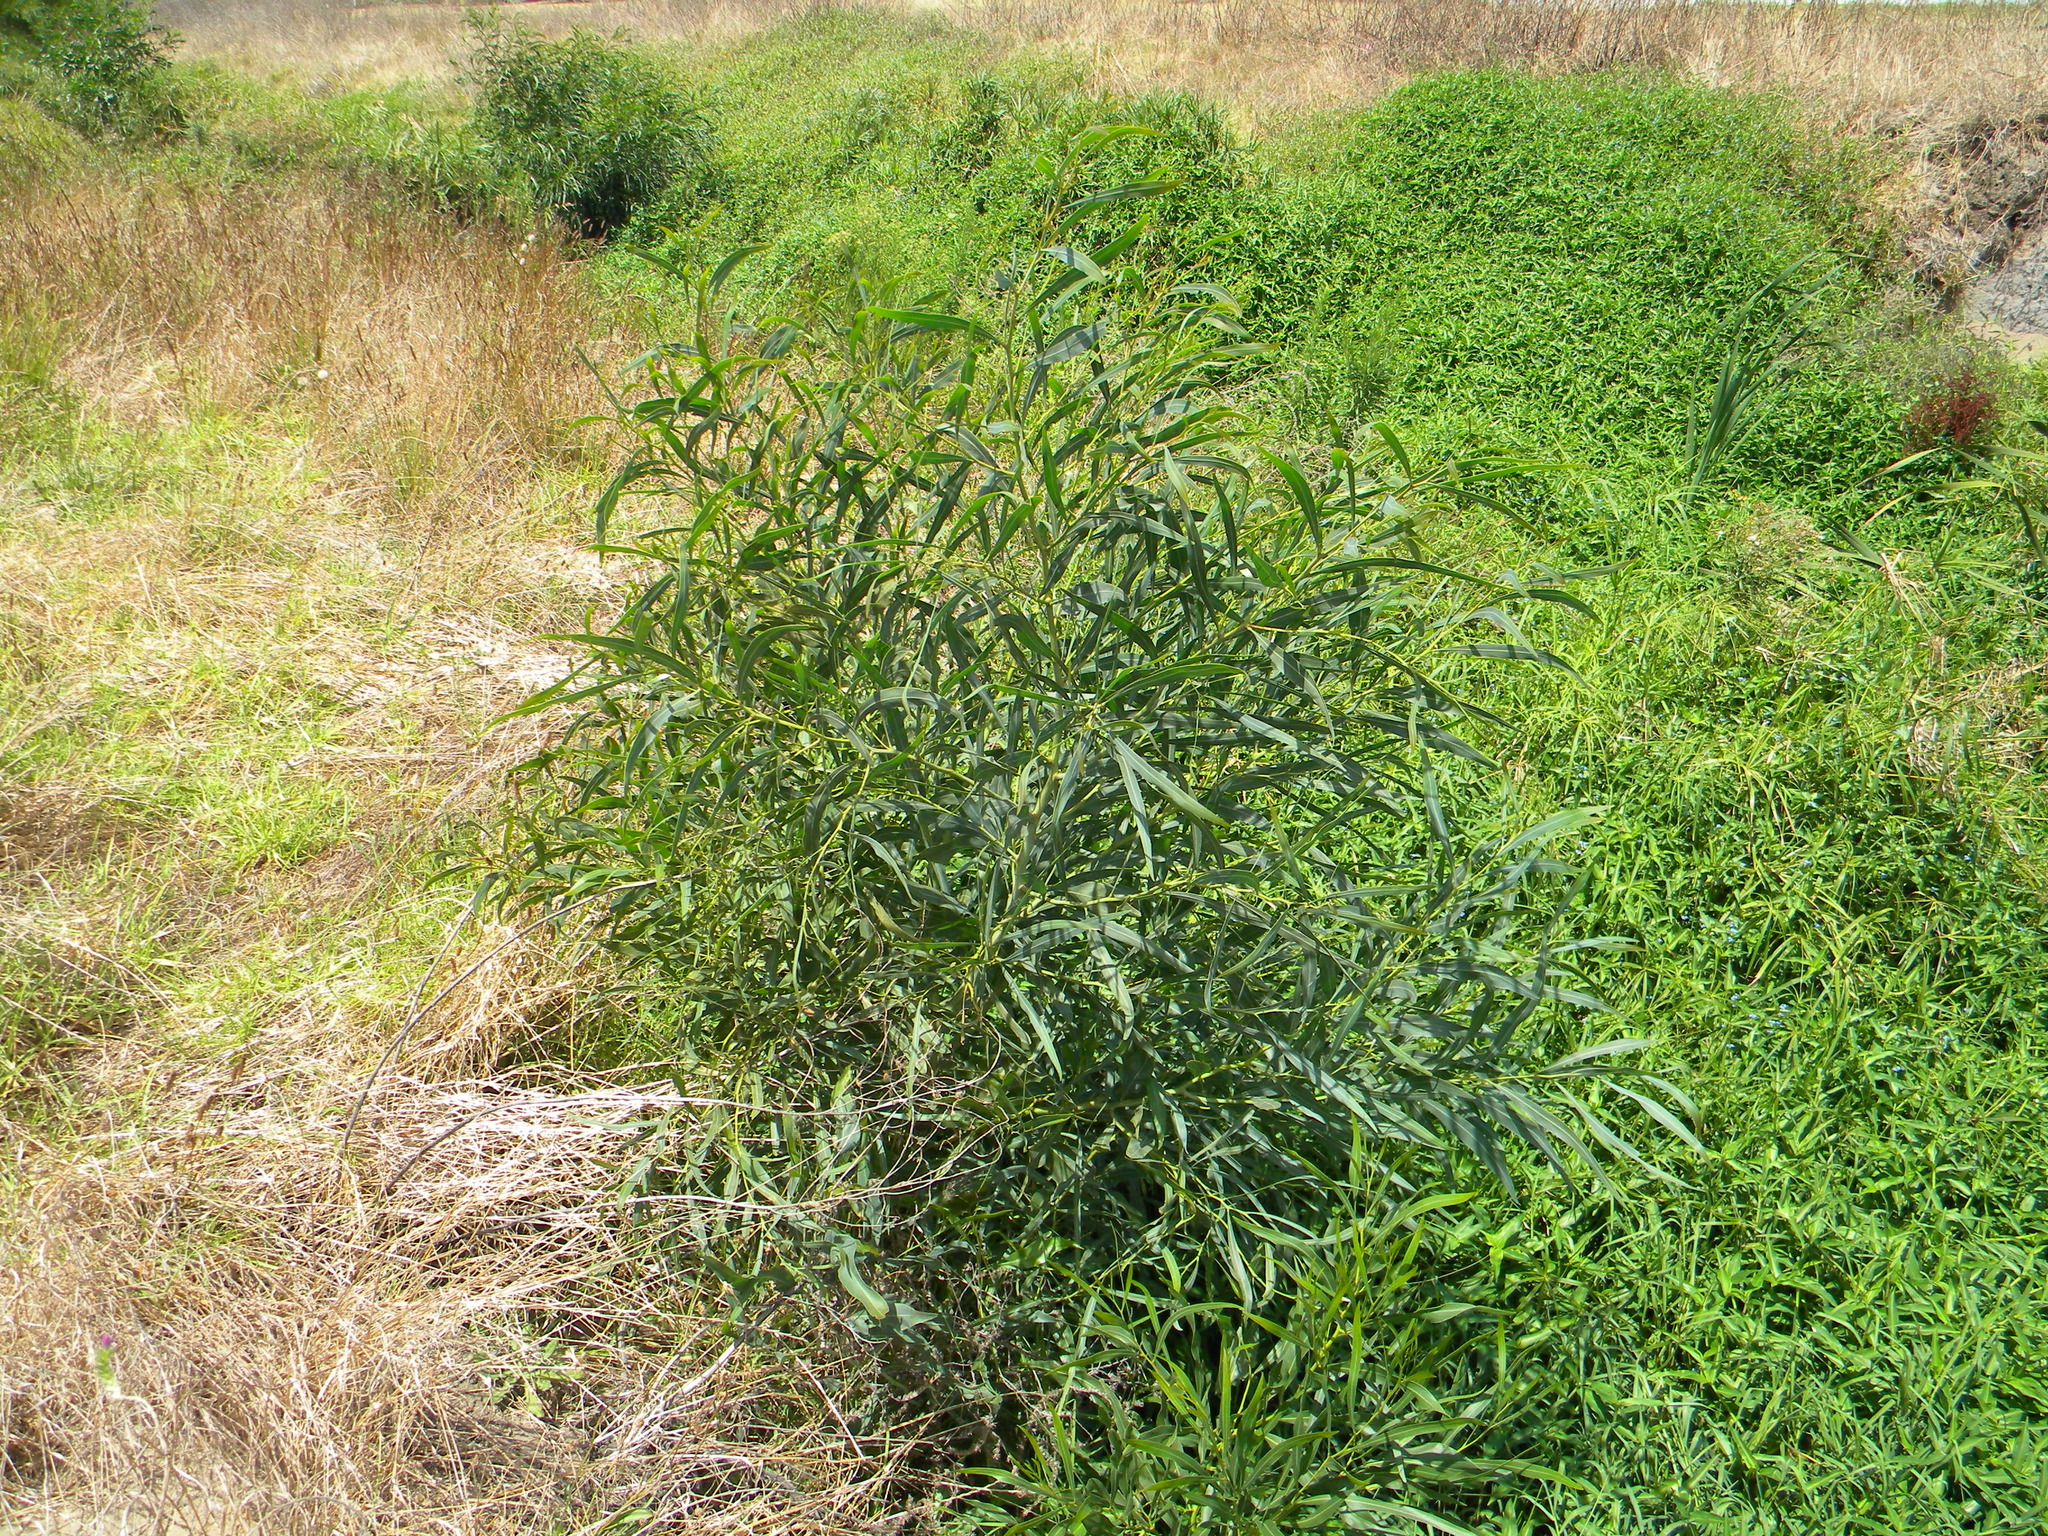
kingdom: Plantae
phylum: Tracheophyta
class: Magnoliopsida
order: Fabales
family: Fabaceae
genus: Acacia
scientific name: Acacia saligna
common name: Orange wattle
